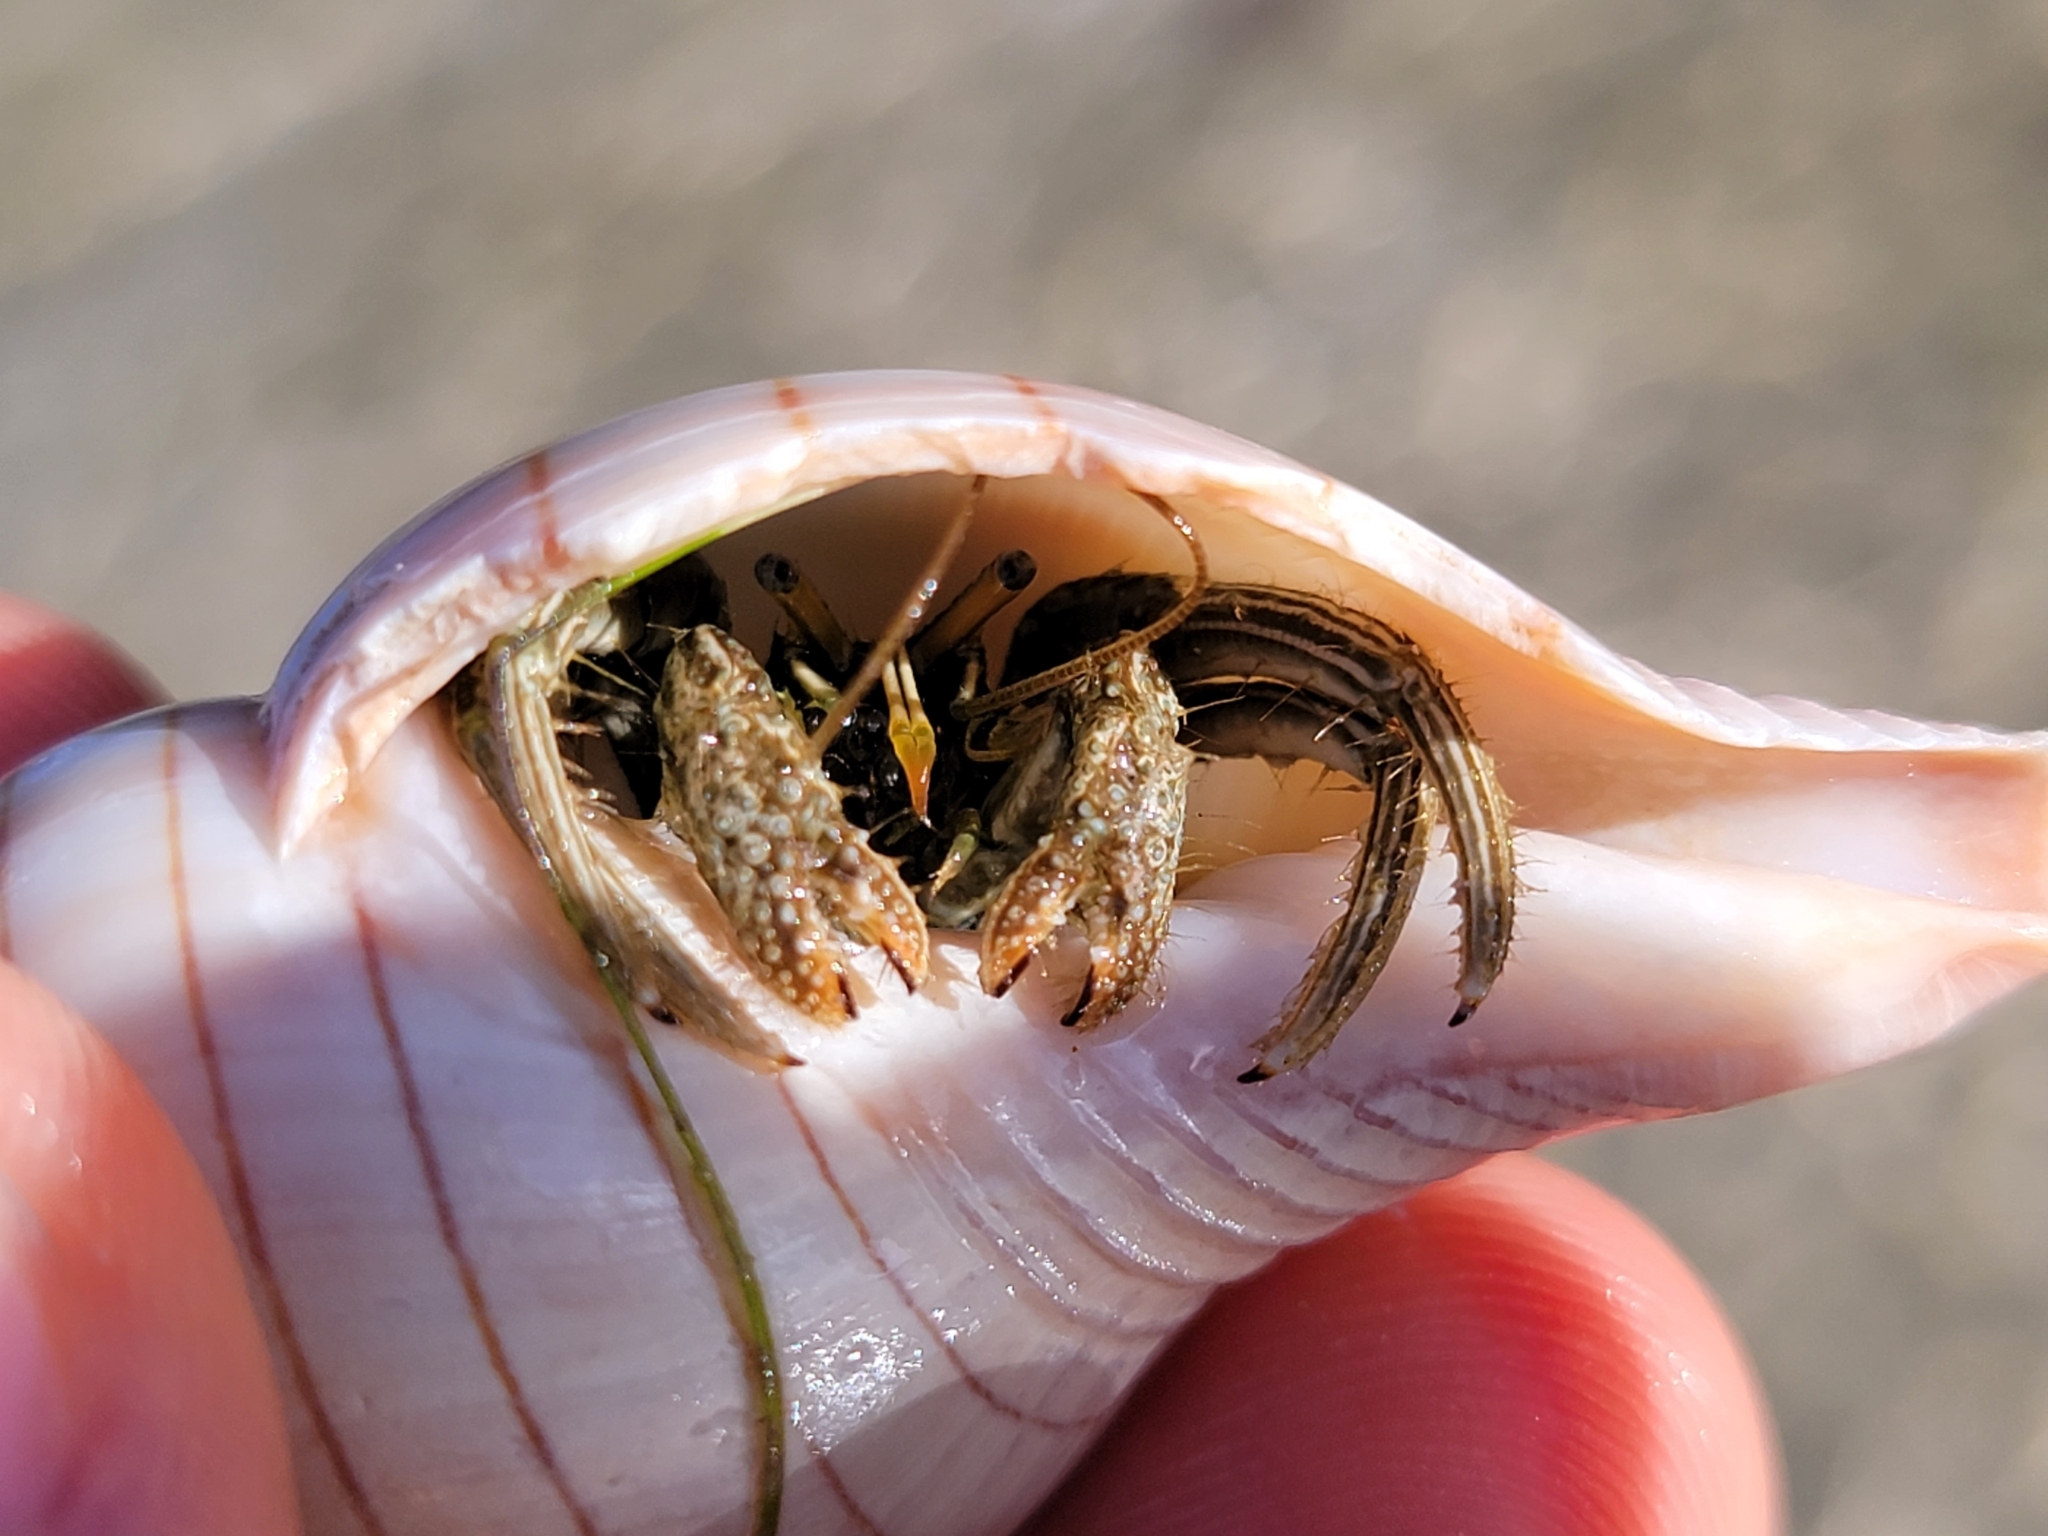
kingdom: Animalia
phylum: Arthropoda
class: Malacostraca
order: Decapoda
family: Diogenidae
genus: Clibanarius
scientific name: Clibanarius vittatus
